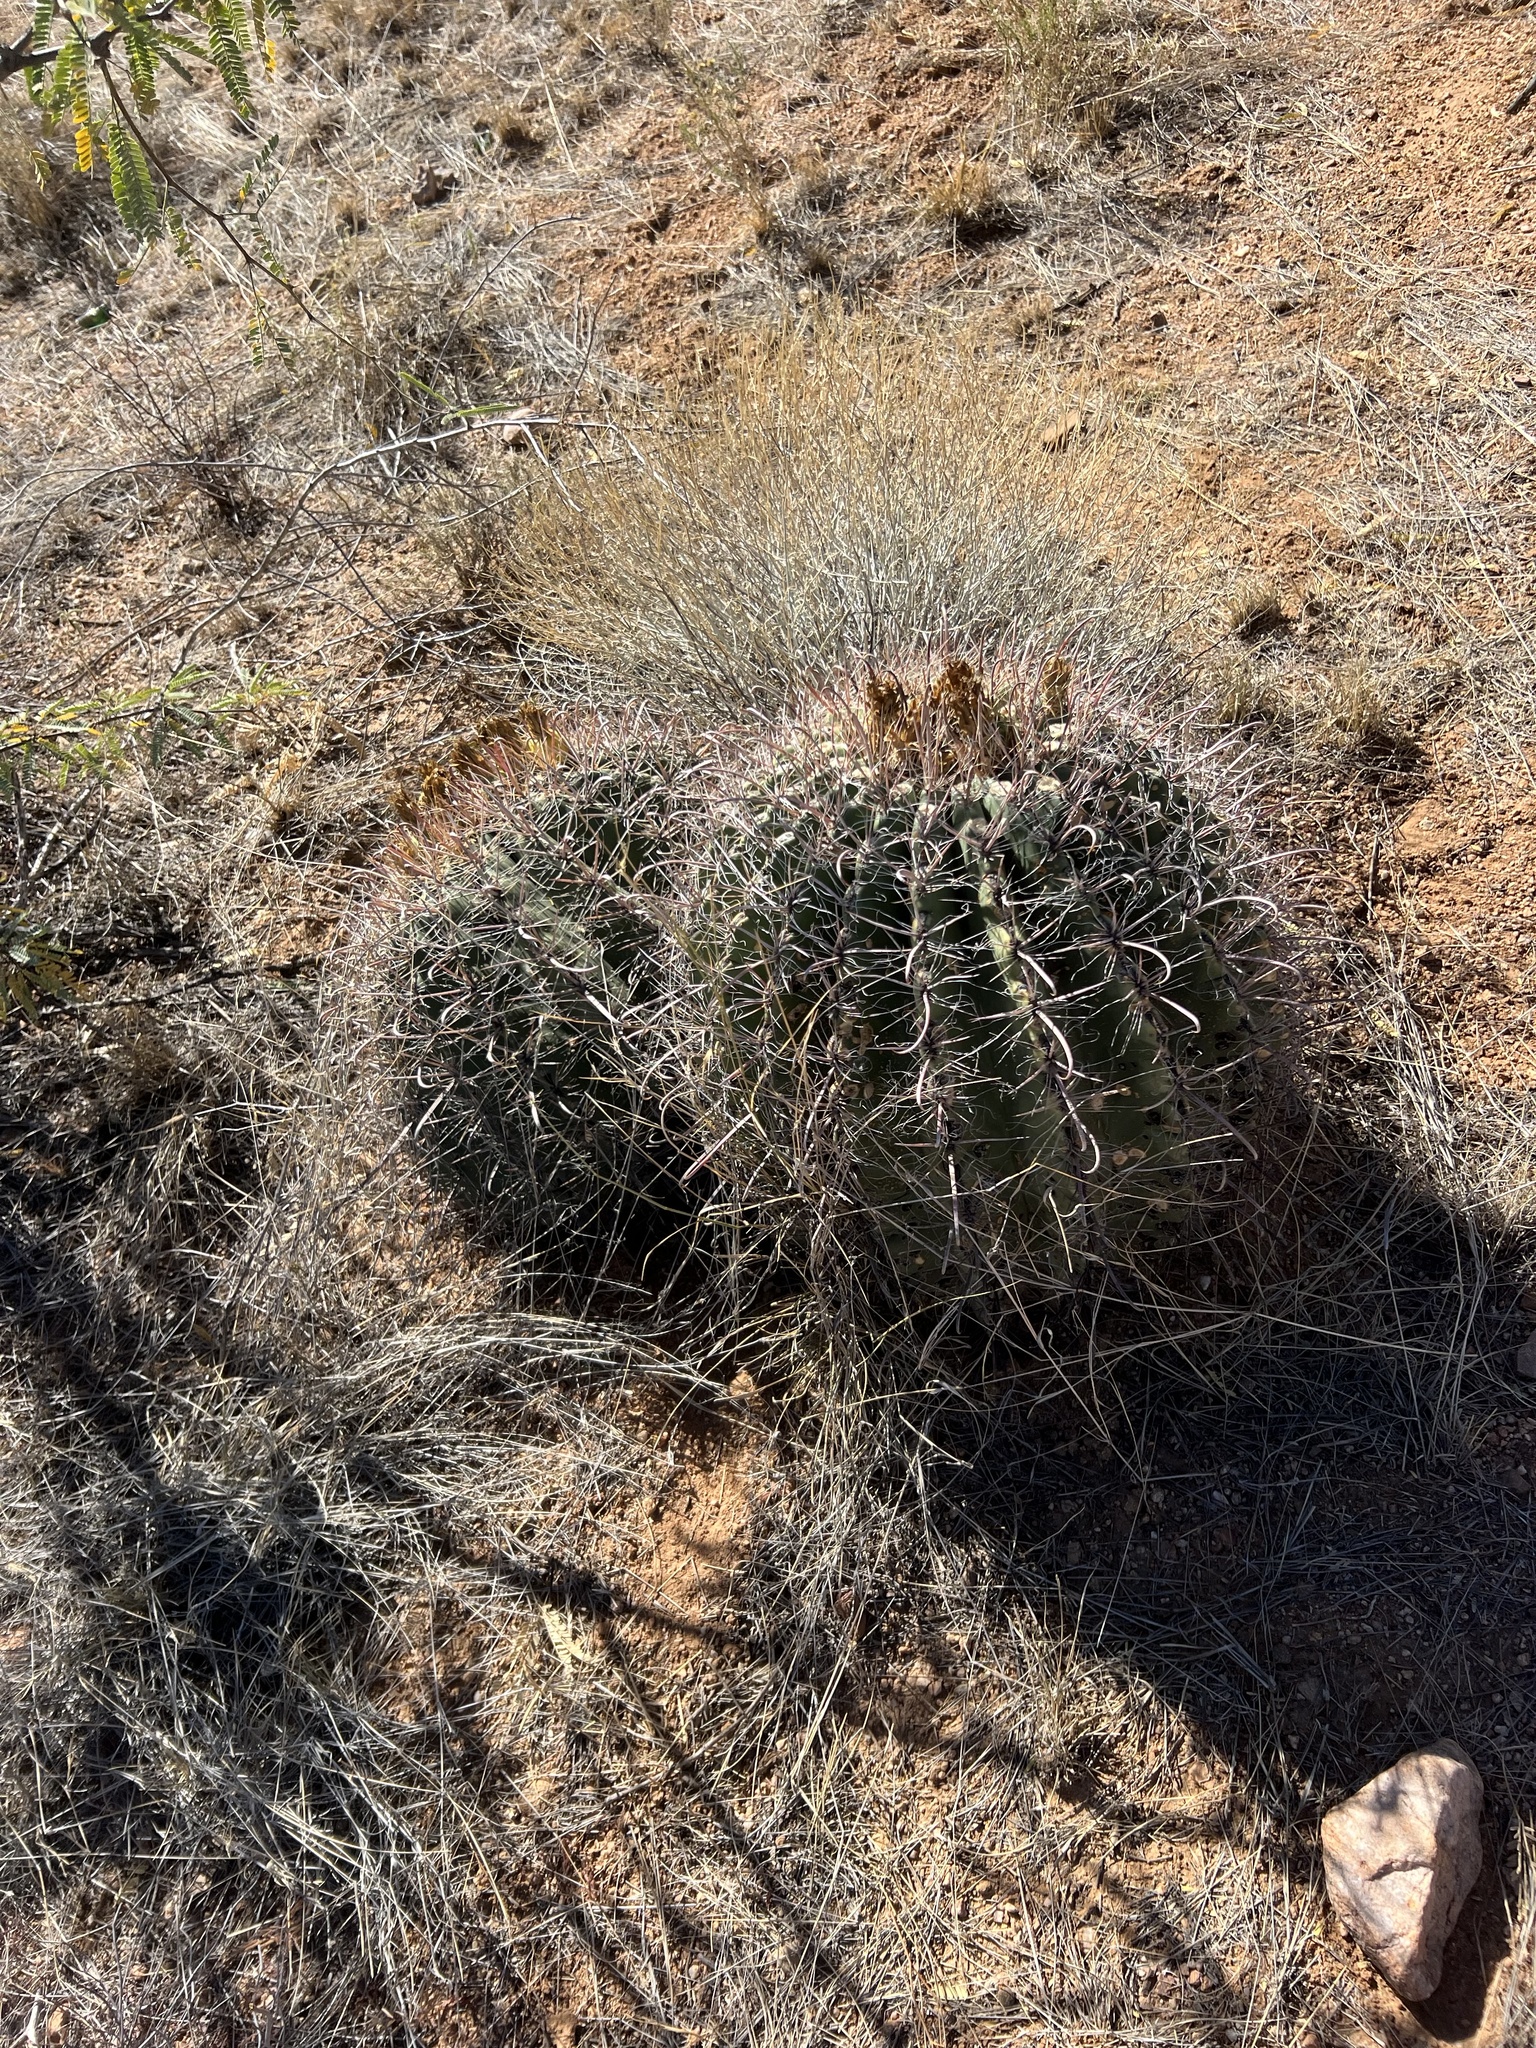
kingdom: Plantae
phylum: Tracheophyta
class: Magnoliopsida
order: Caryophyllales
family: Cactaceae
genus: Ferocactus
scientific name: Ferocactus wislizeni
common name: Candy barrel cactus
